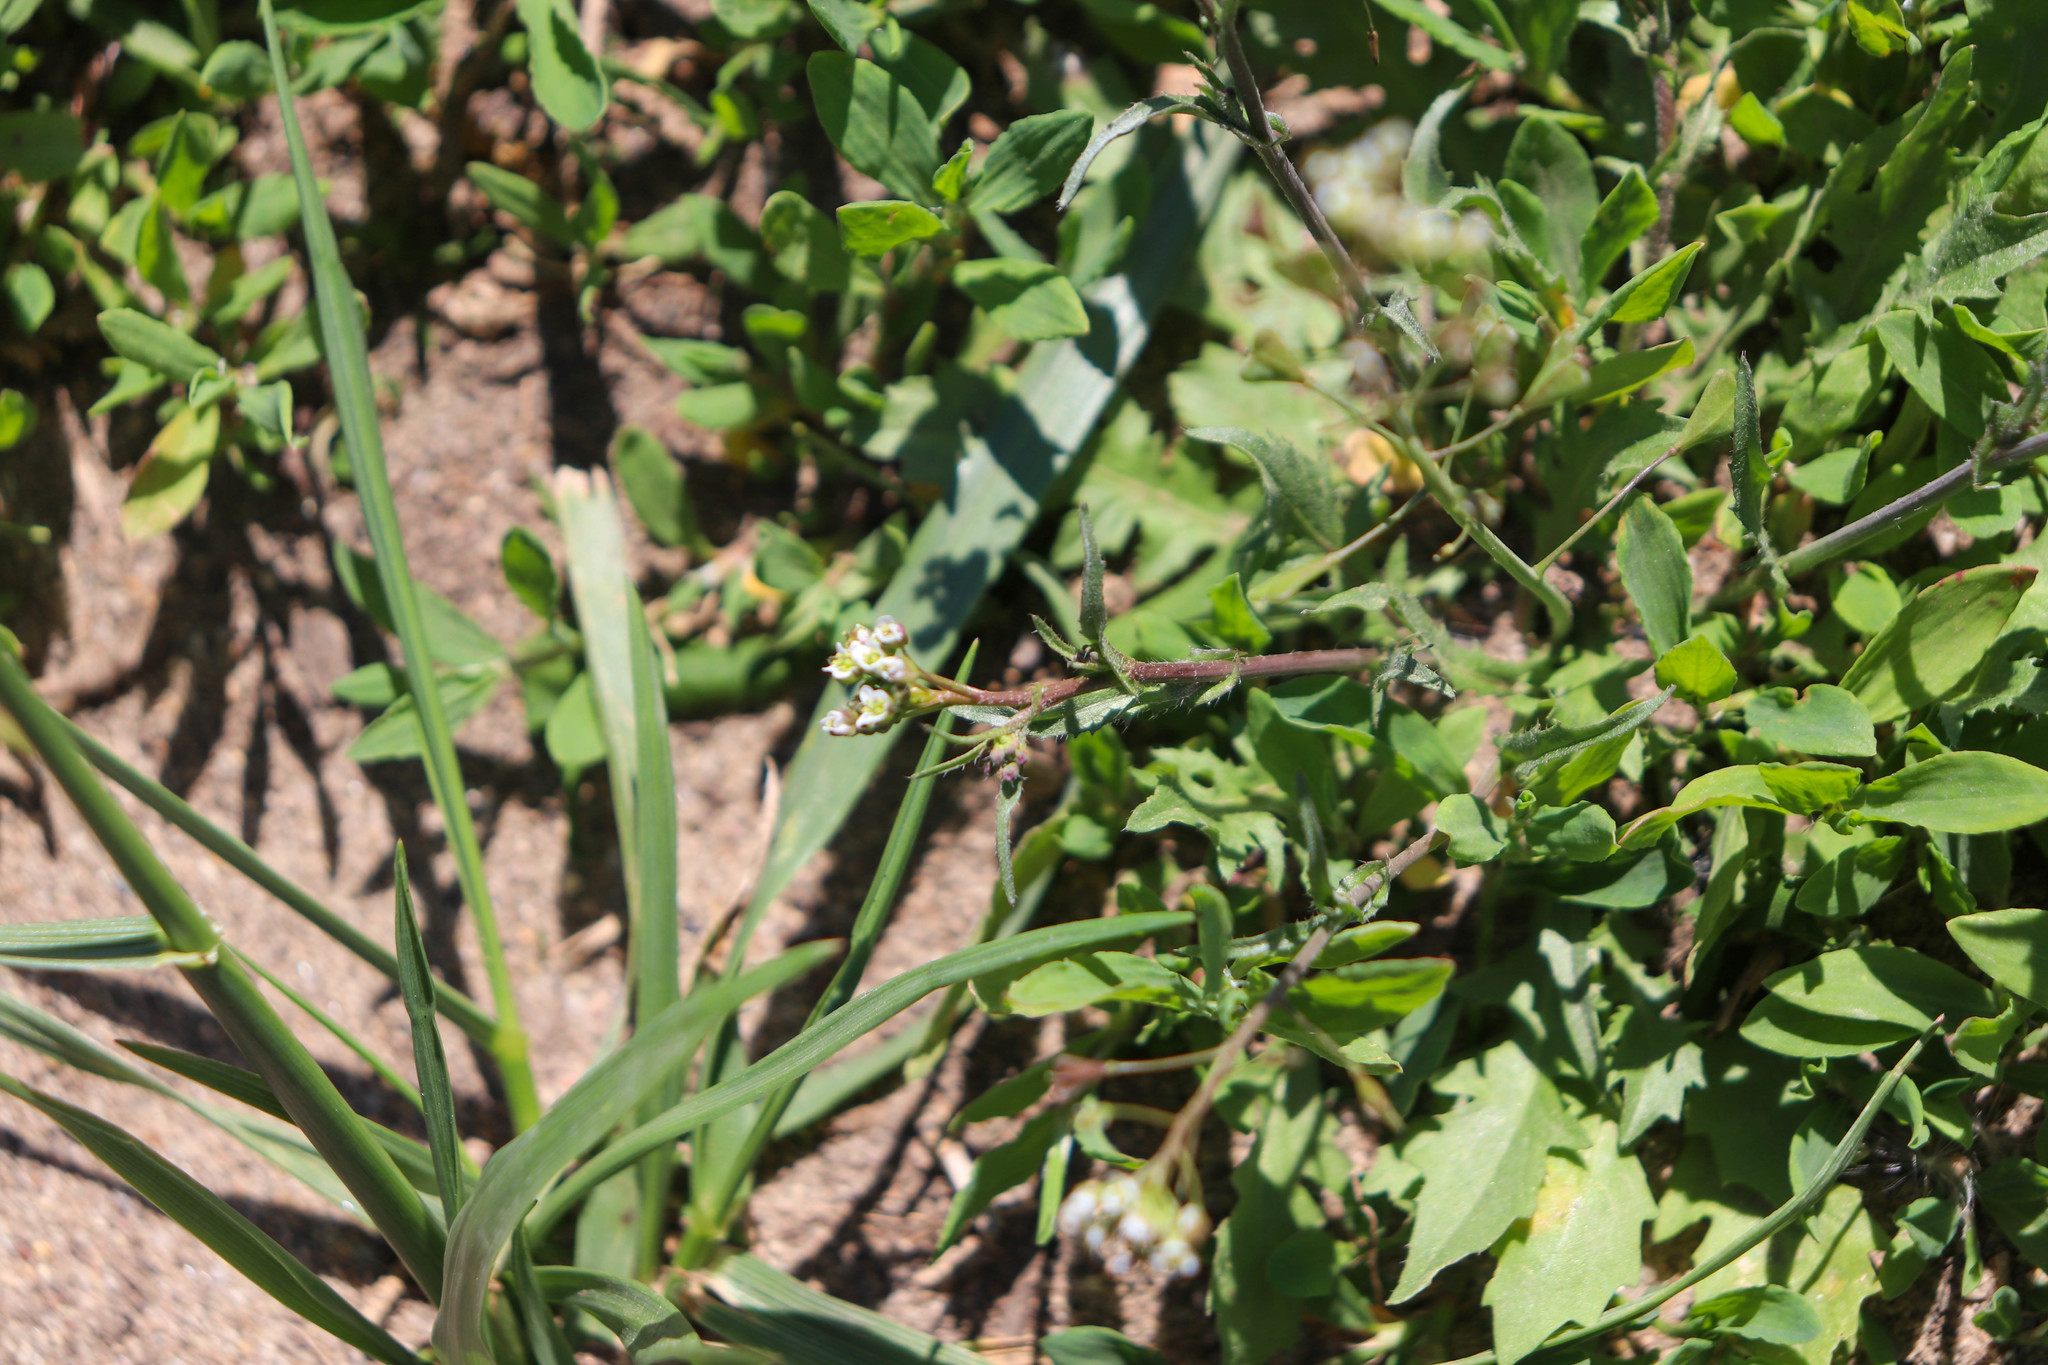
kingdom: Plantae
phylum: Tracheophyta
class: Magnoliopsida
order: Brassicales
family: Brassicaceae
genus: Capsella
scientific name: Capsella bursa-pastoris
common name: Shepherd's purse
